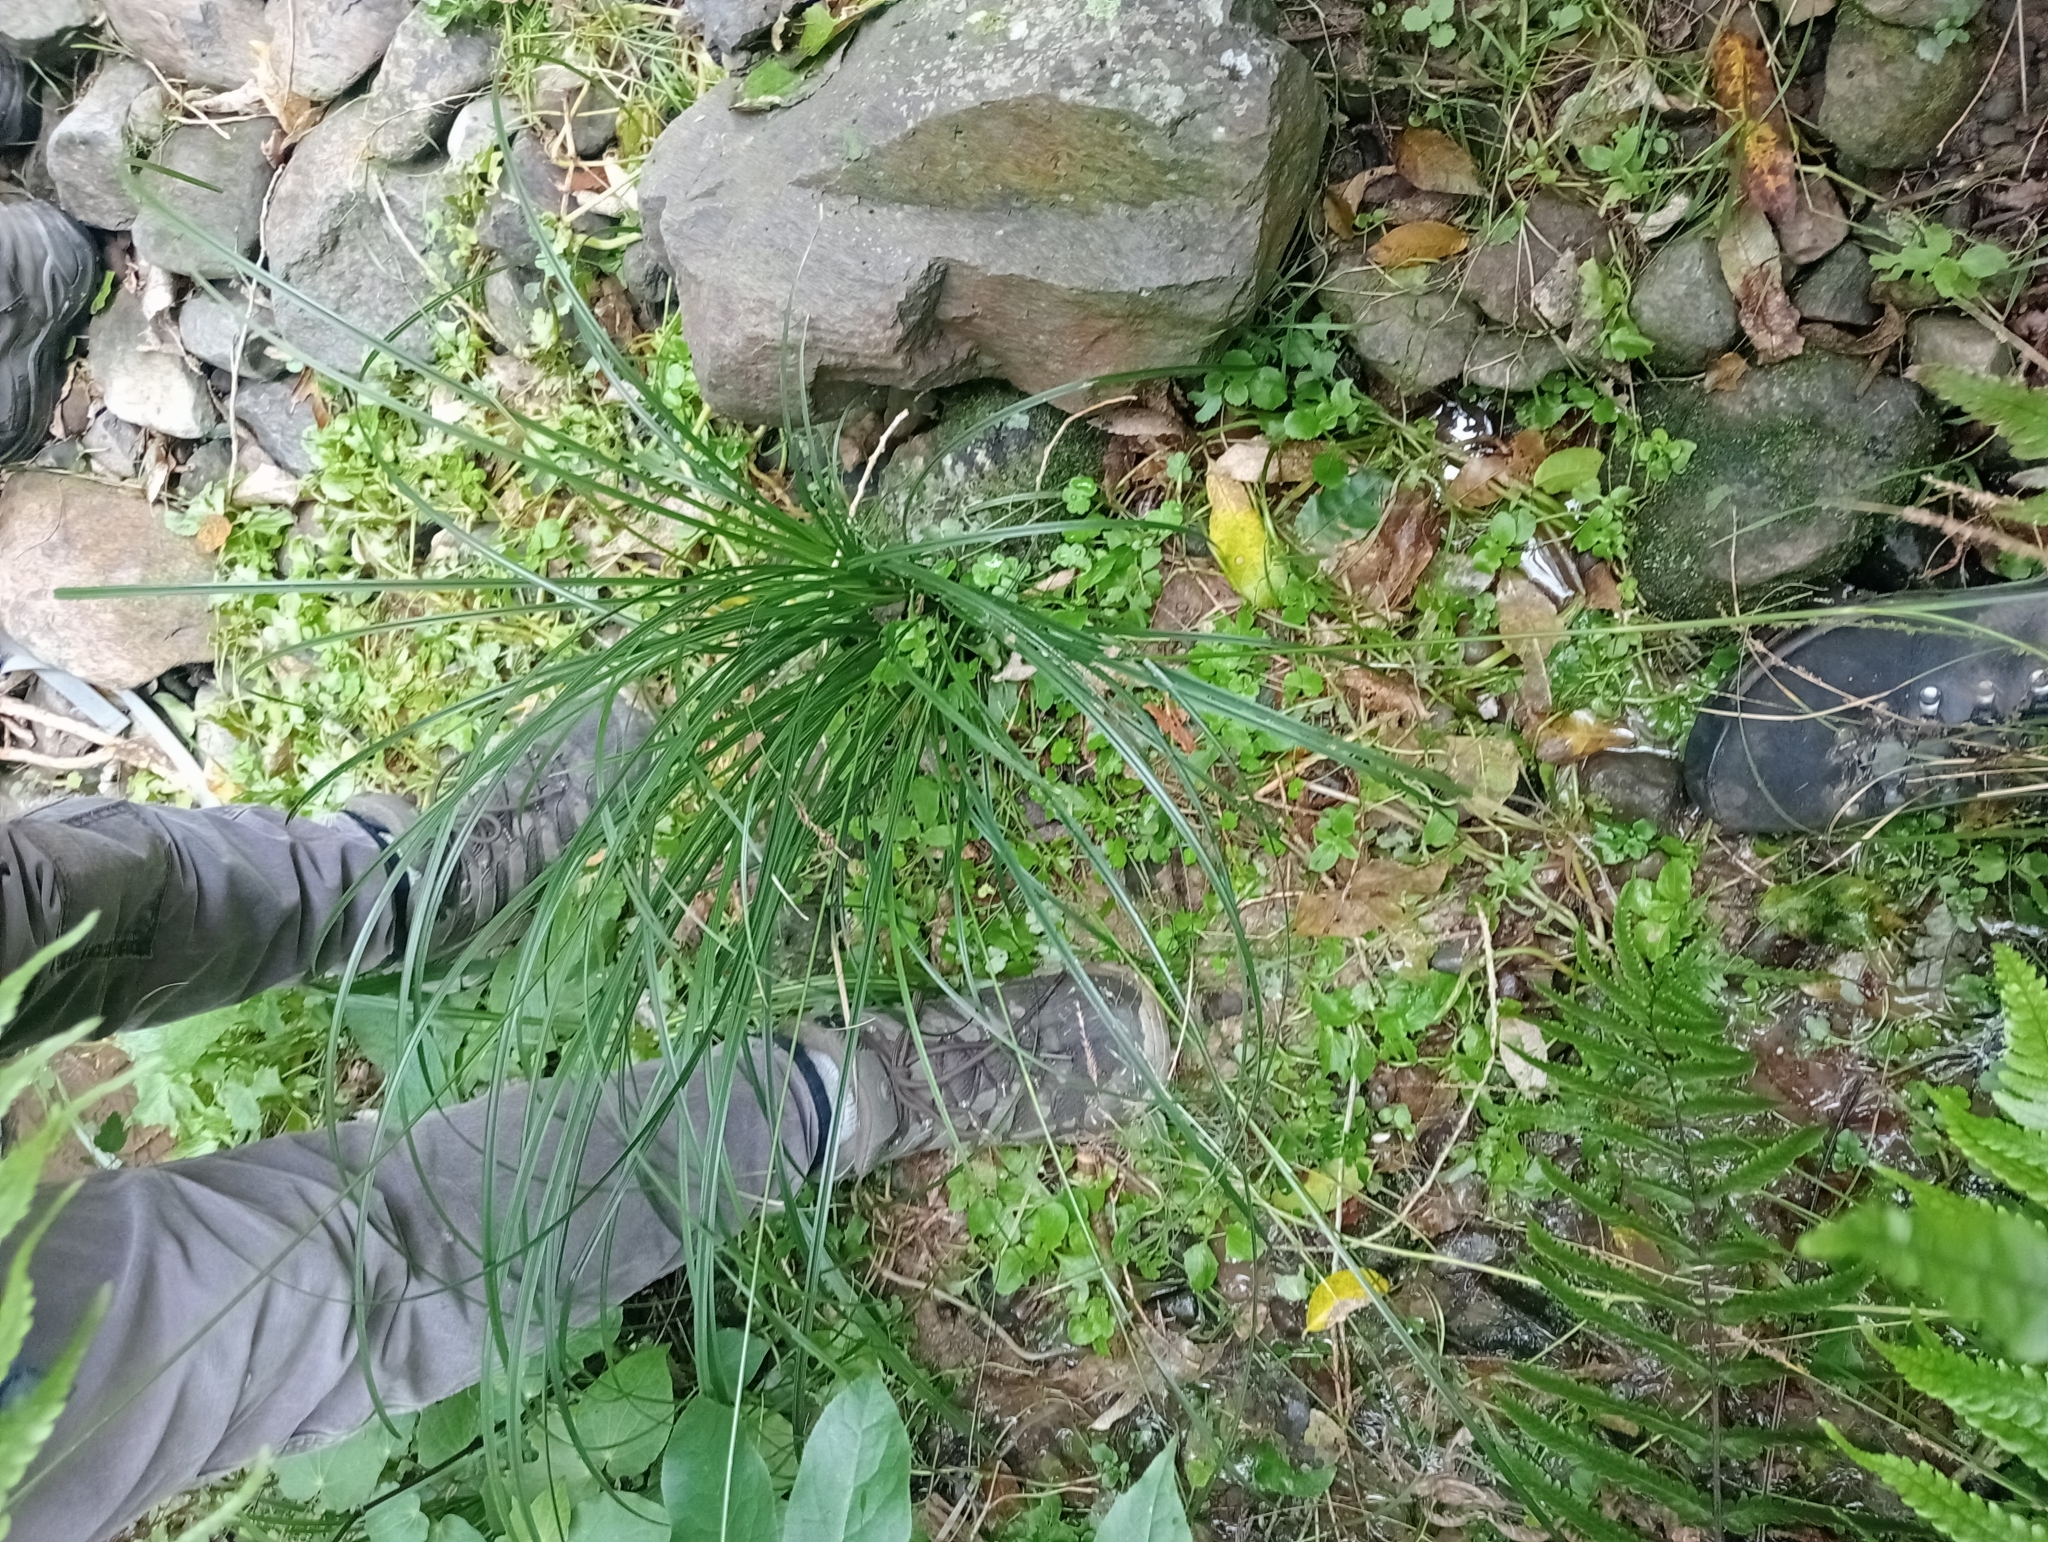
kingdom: Plantae
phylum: Tracheophyta
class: Liliopsida
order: Poales
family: Cyperaceae
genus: Carex
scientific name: Carex solandri
